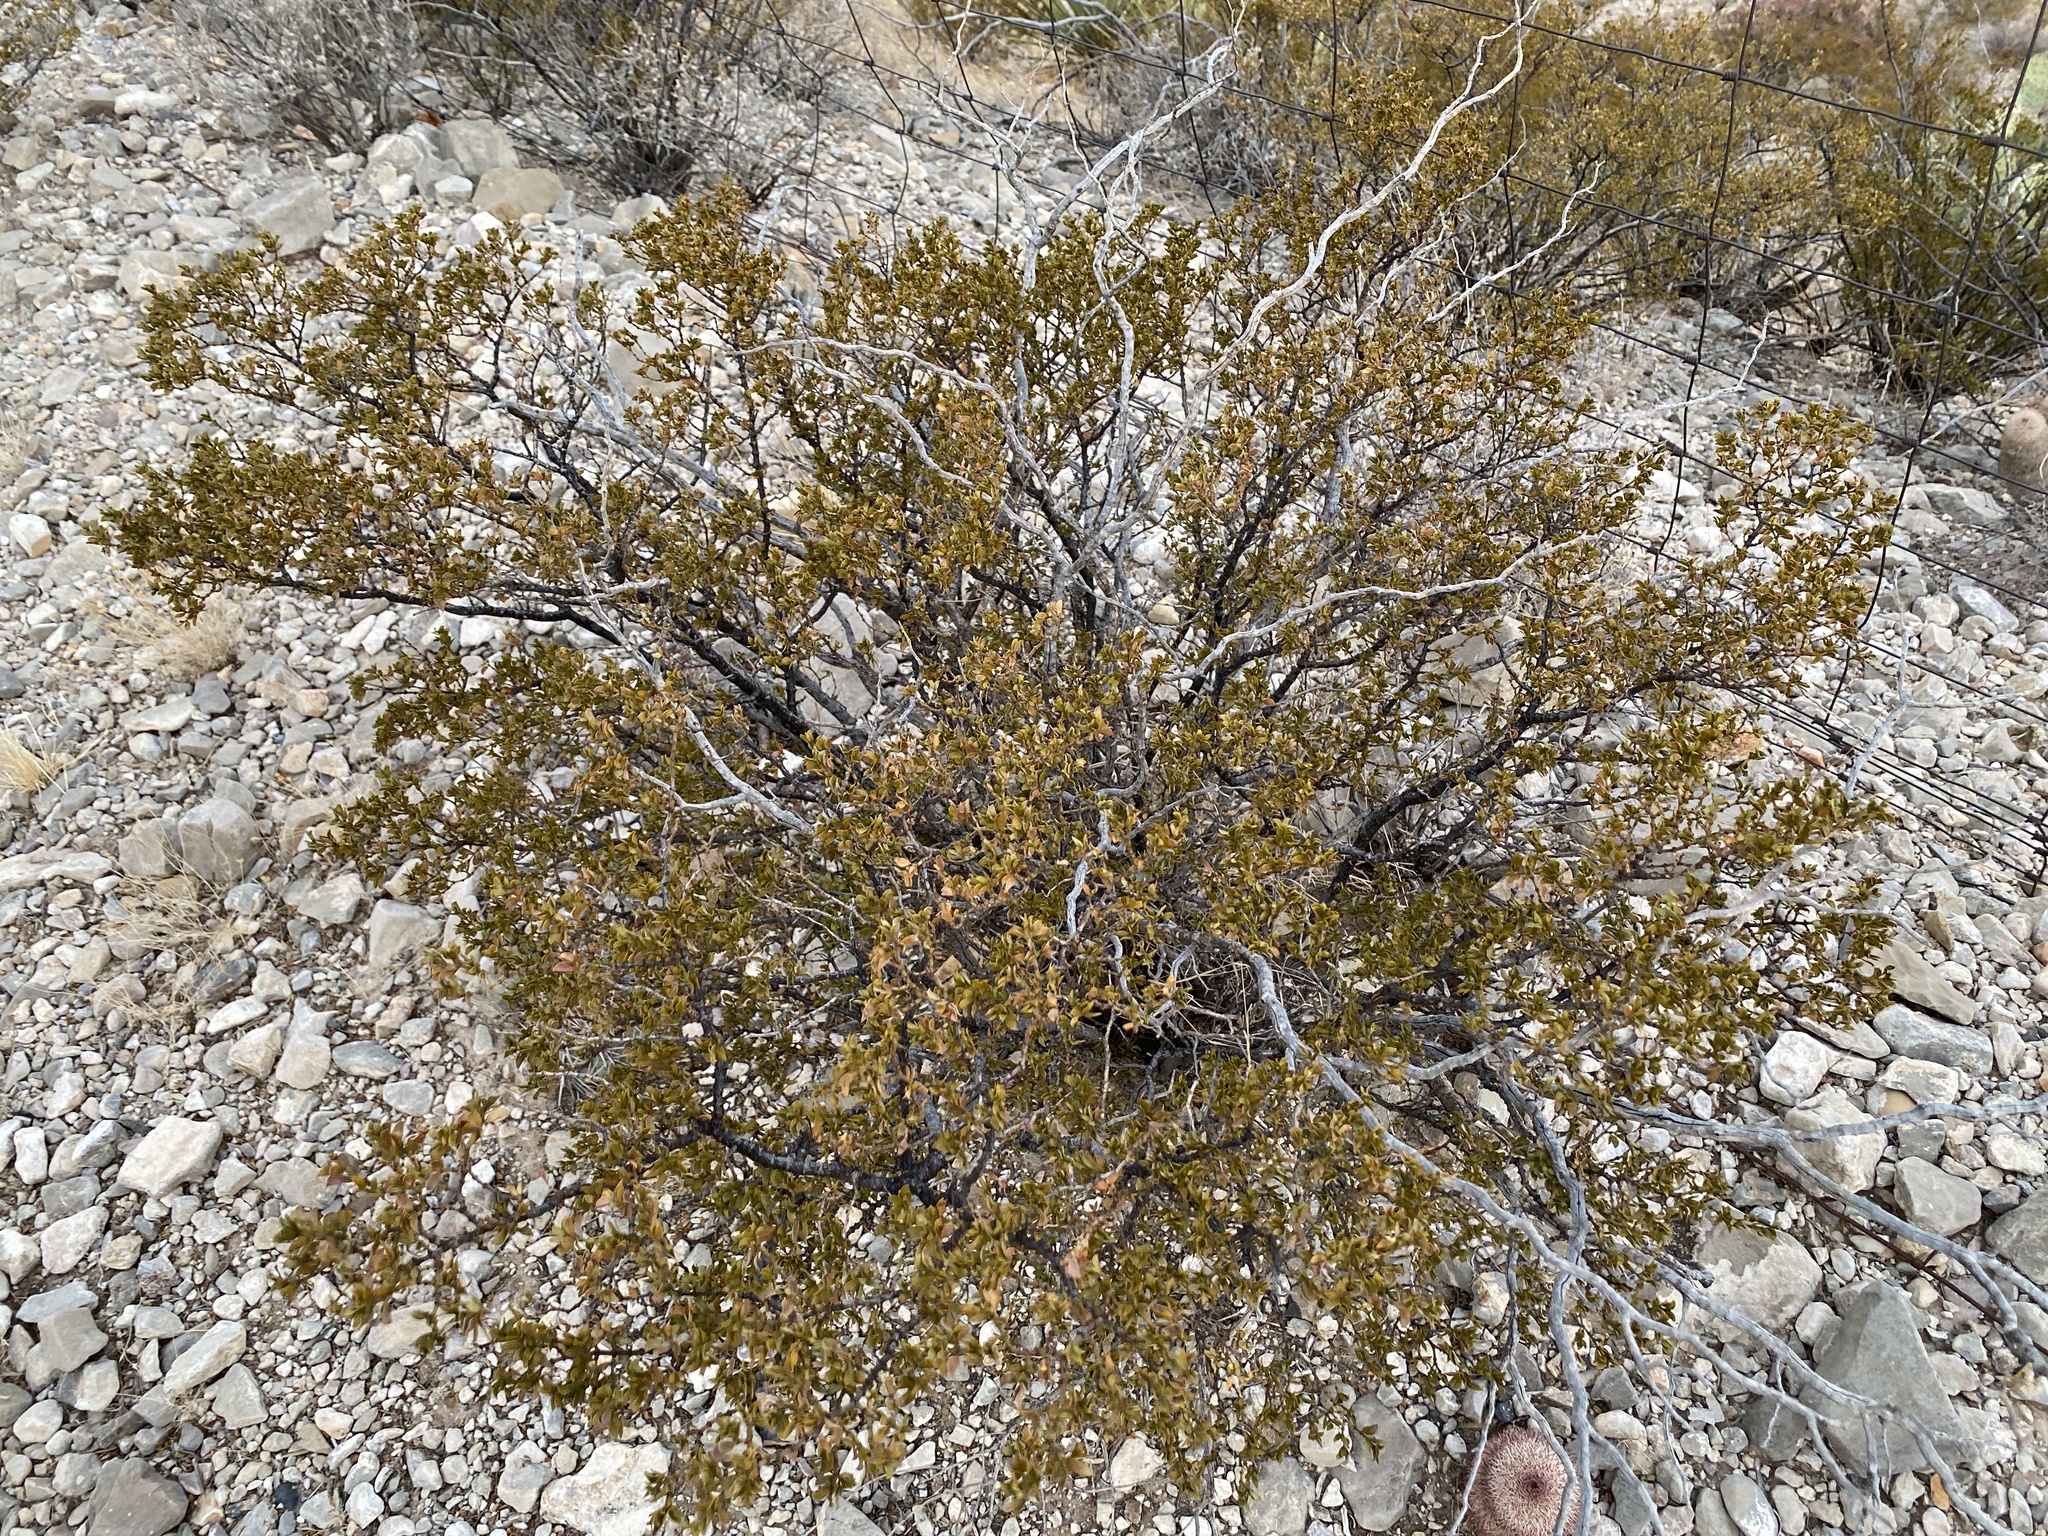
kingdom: Plantae
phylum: Tracheophyta
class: Magnoliopsida
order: Zygophyllales
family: Zygophyllaceae
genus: Larrea
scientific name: Larrea tridentata
